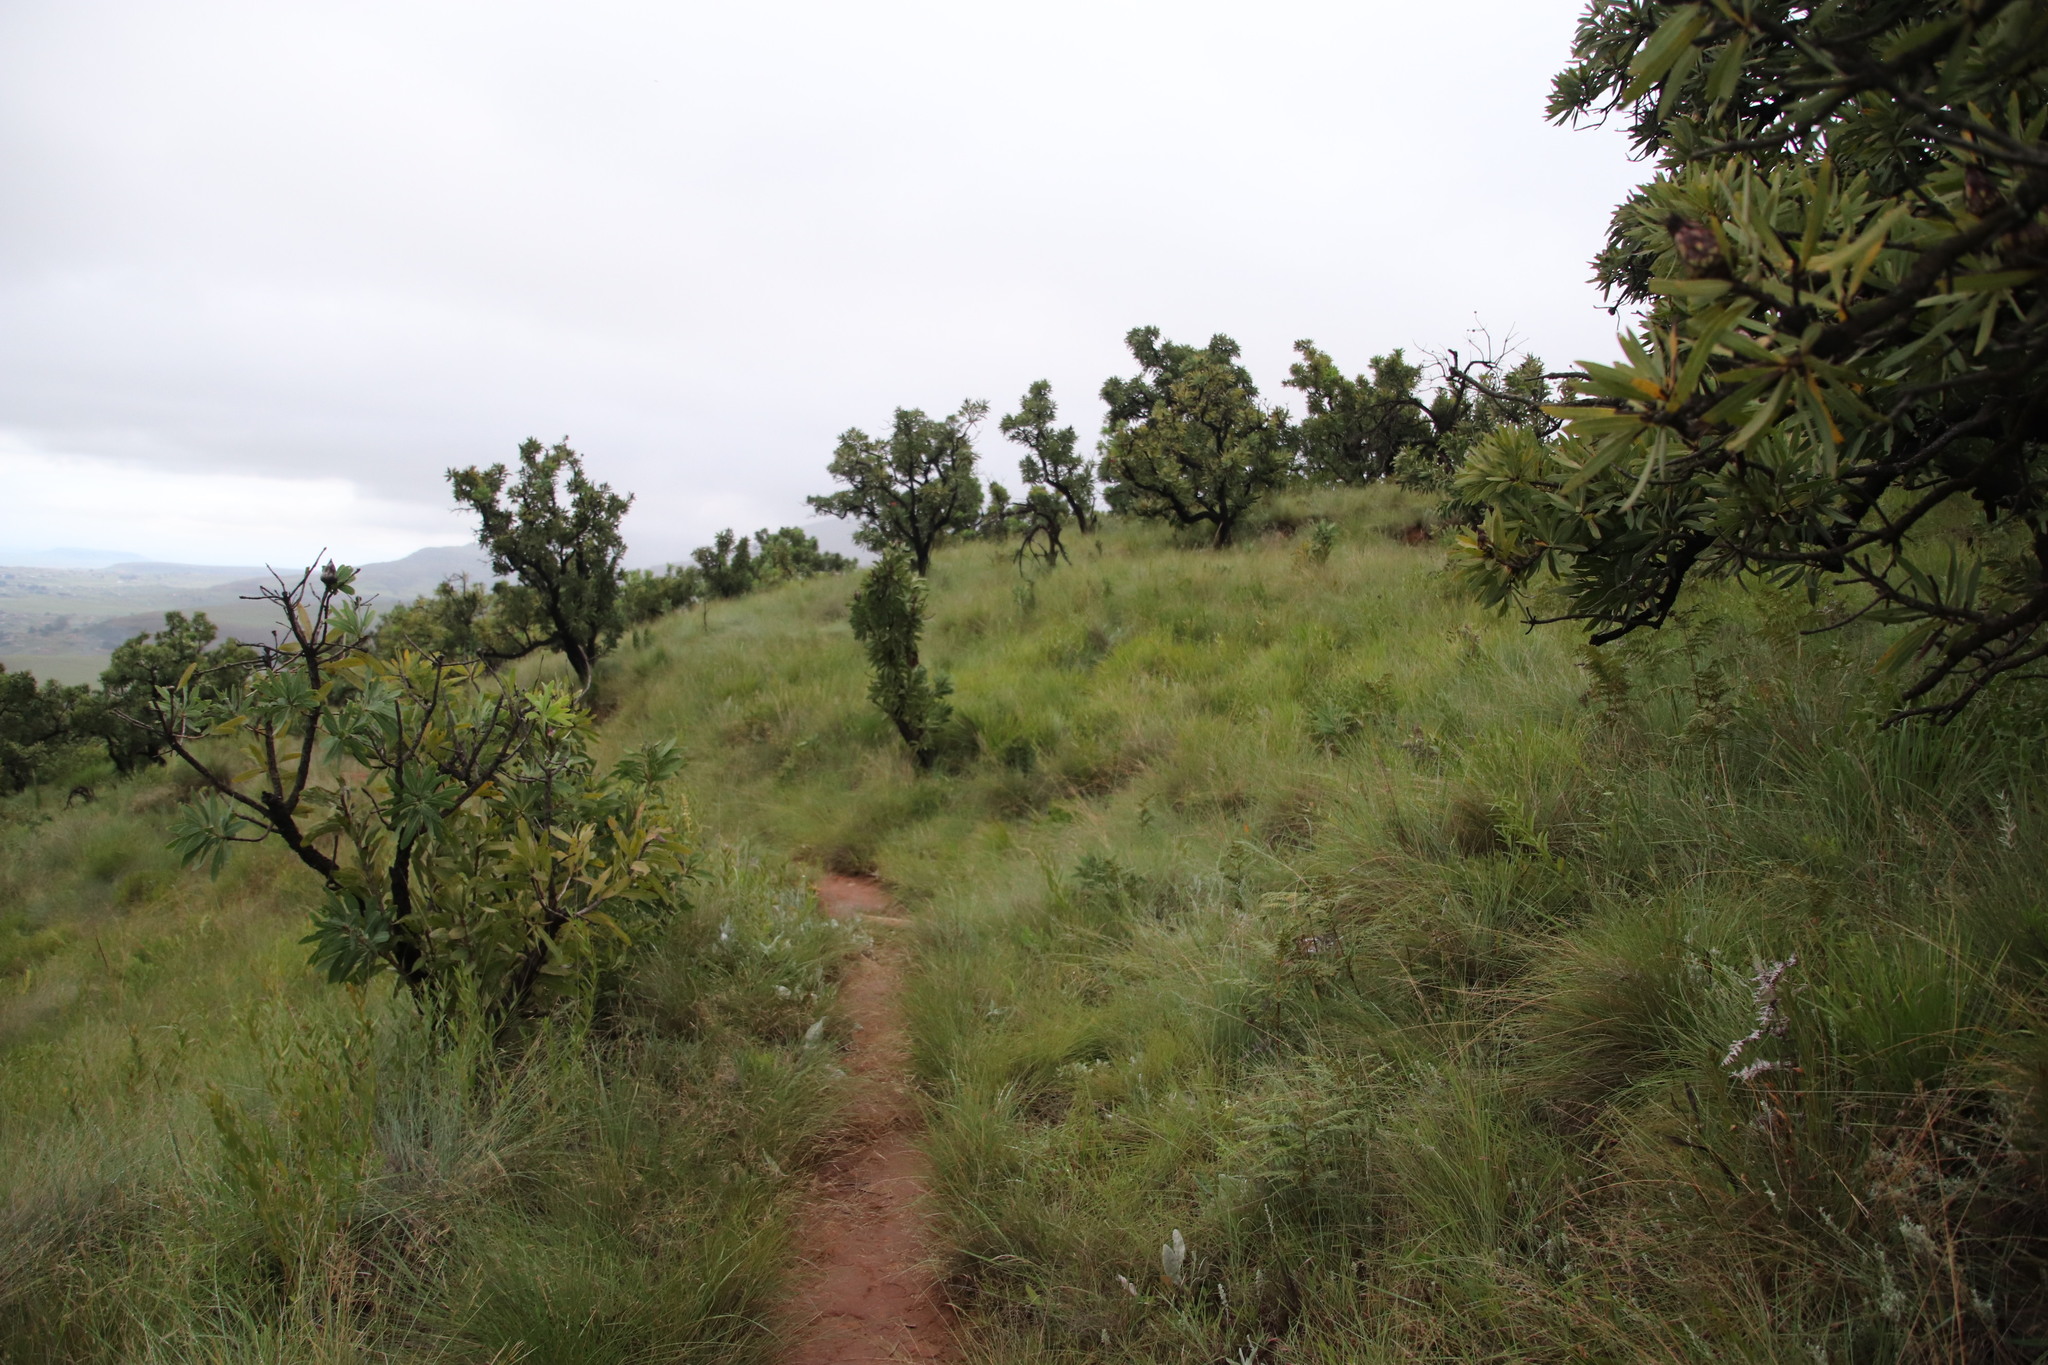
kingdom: Plantae
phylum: Tracheophyta
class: Magnoliopsida
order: Proteales
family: Proteaceae
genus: Protea
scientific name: Protea caffra
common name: Common sugarbush
